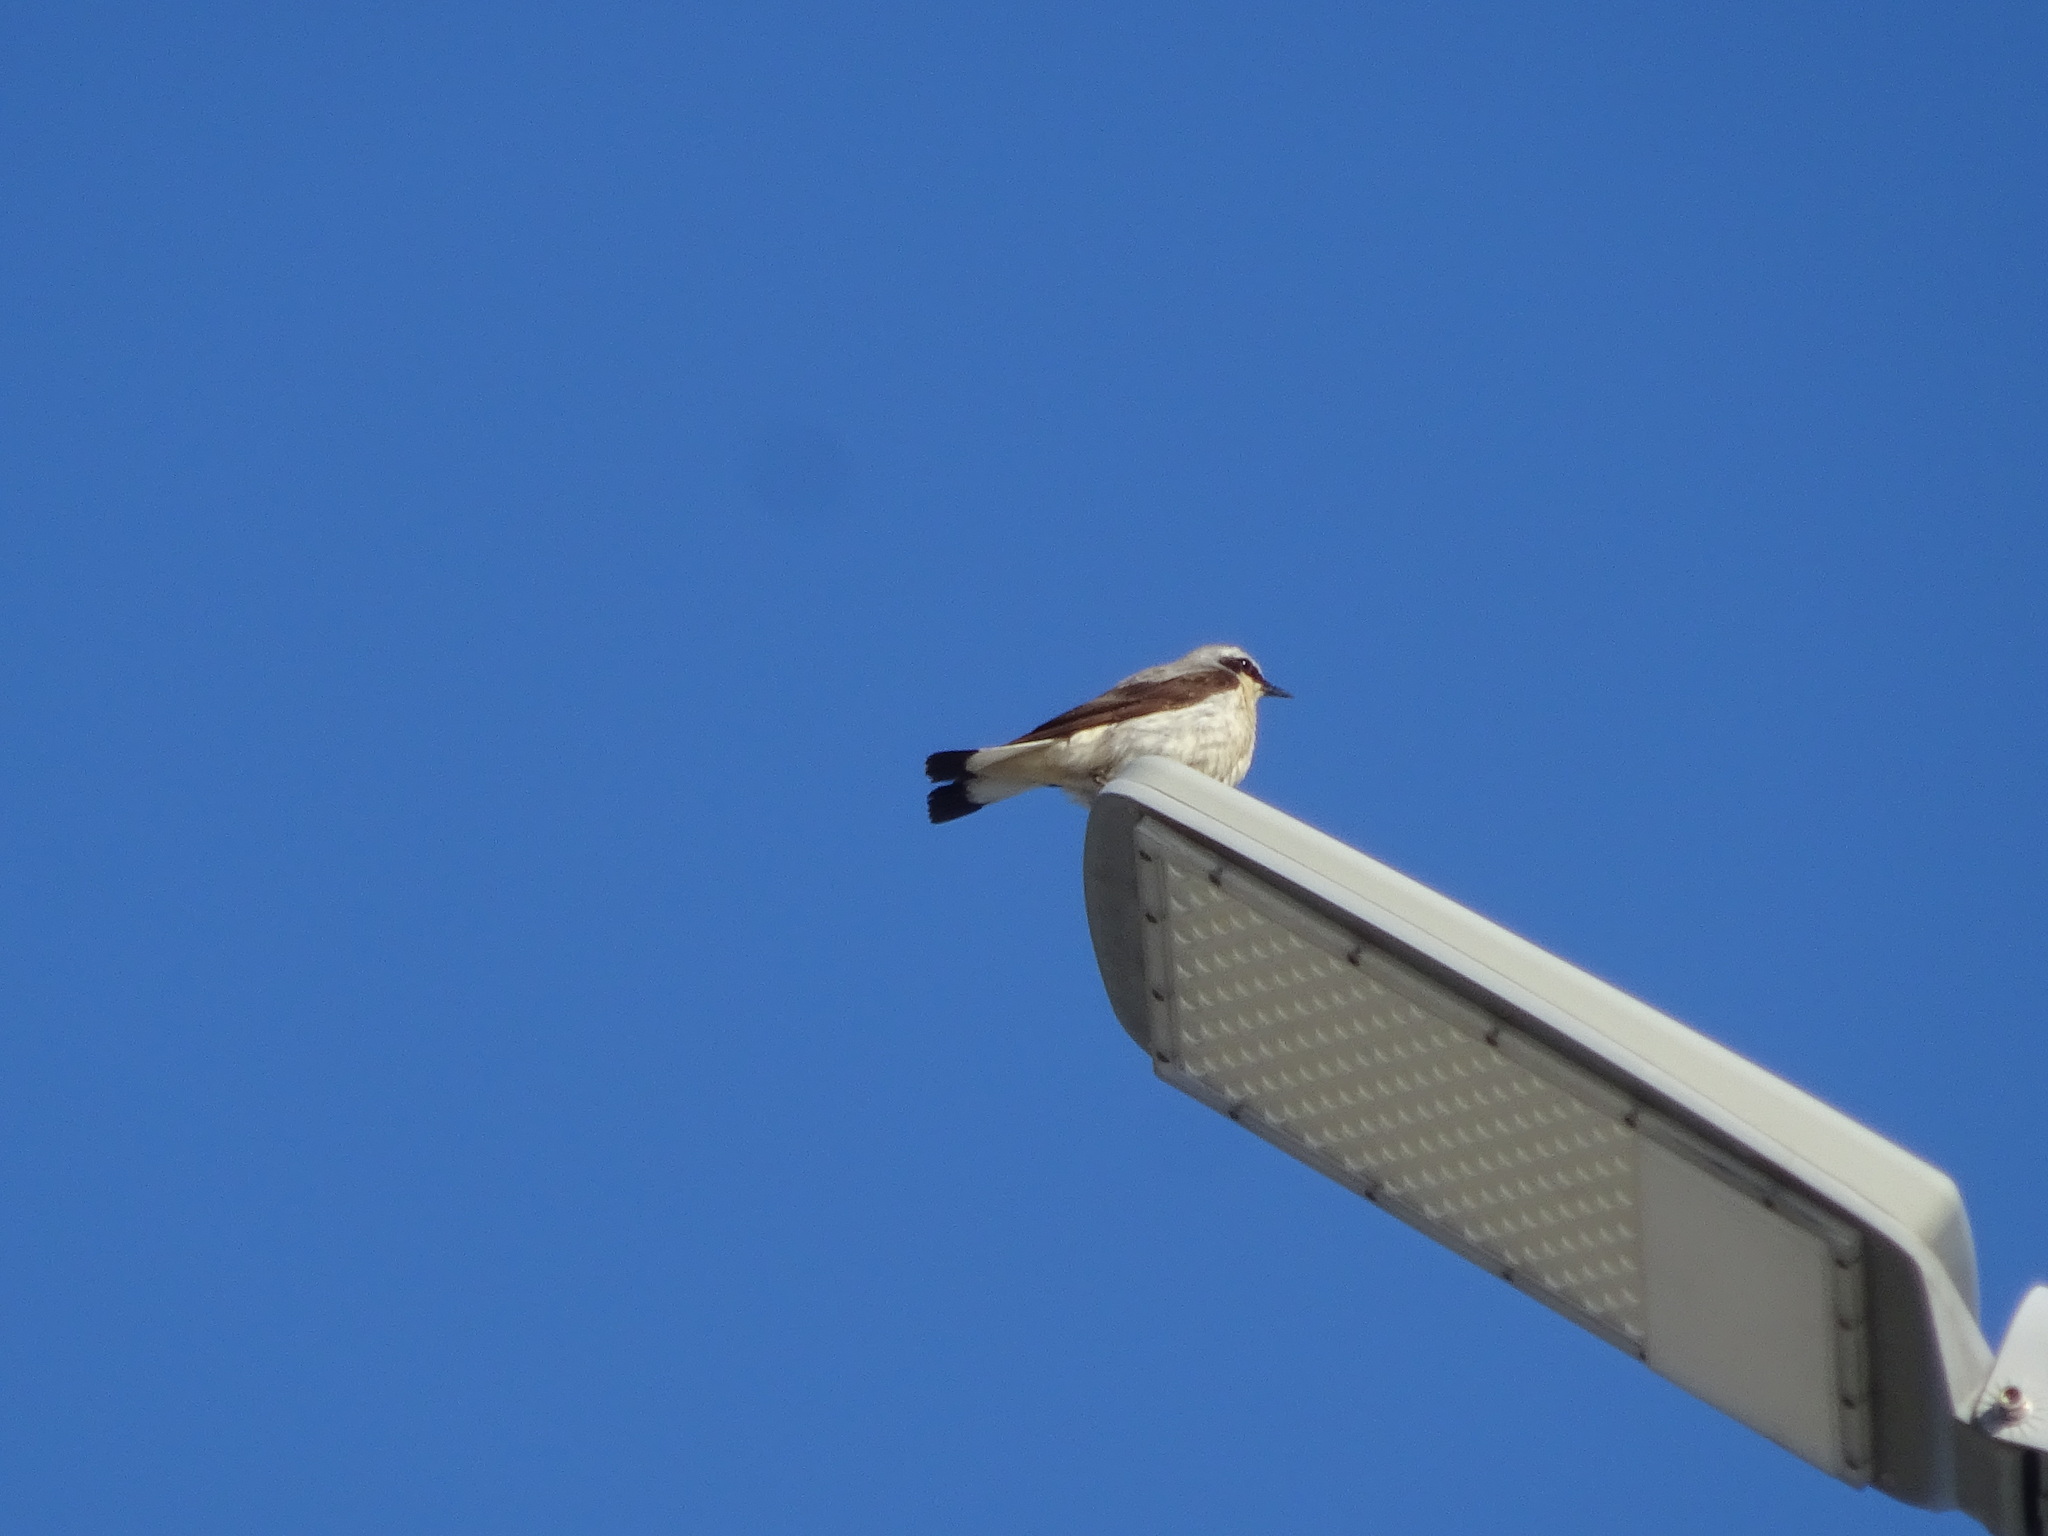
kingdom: Animalia
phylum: Chordata
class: Aves
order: Passeriformes
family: Muscicapidae
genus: Oenanthe
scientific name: Oenanthe oenanthe
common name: Northern wheatear
